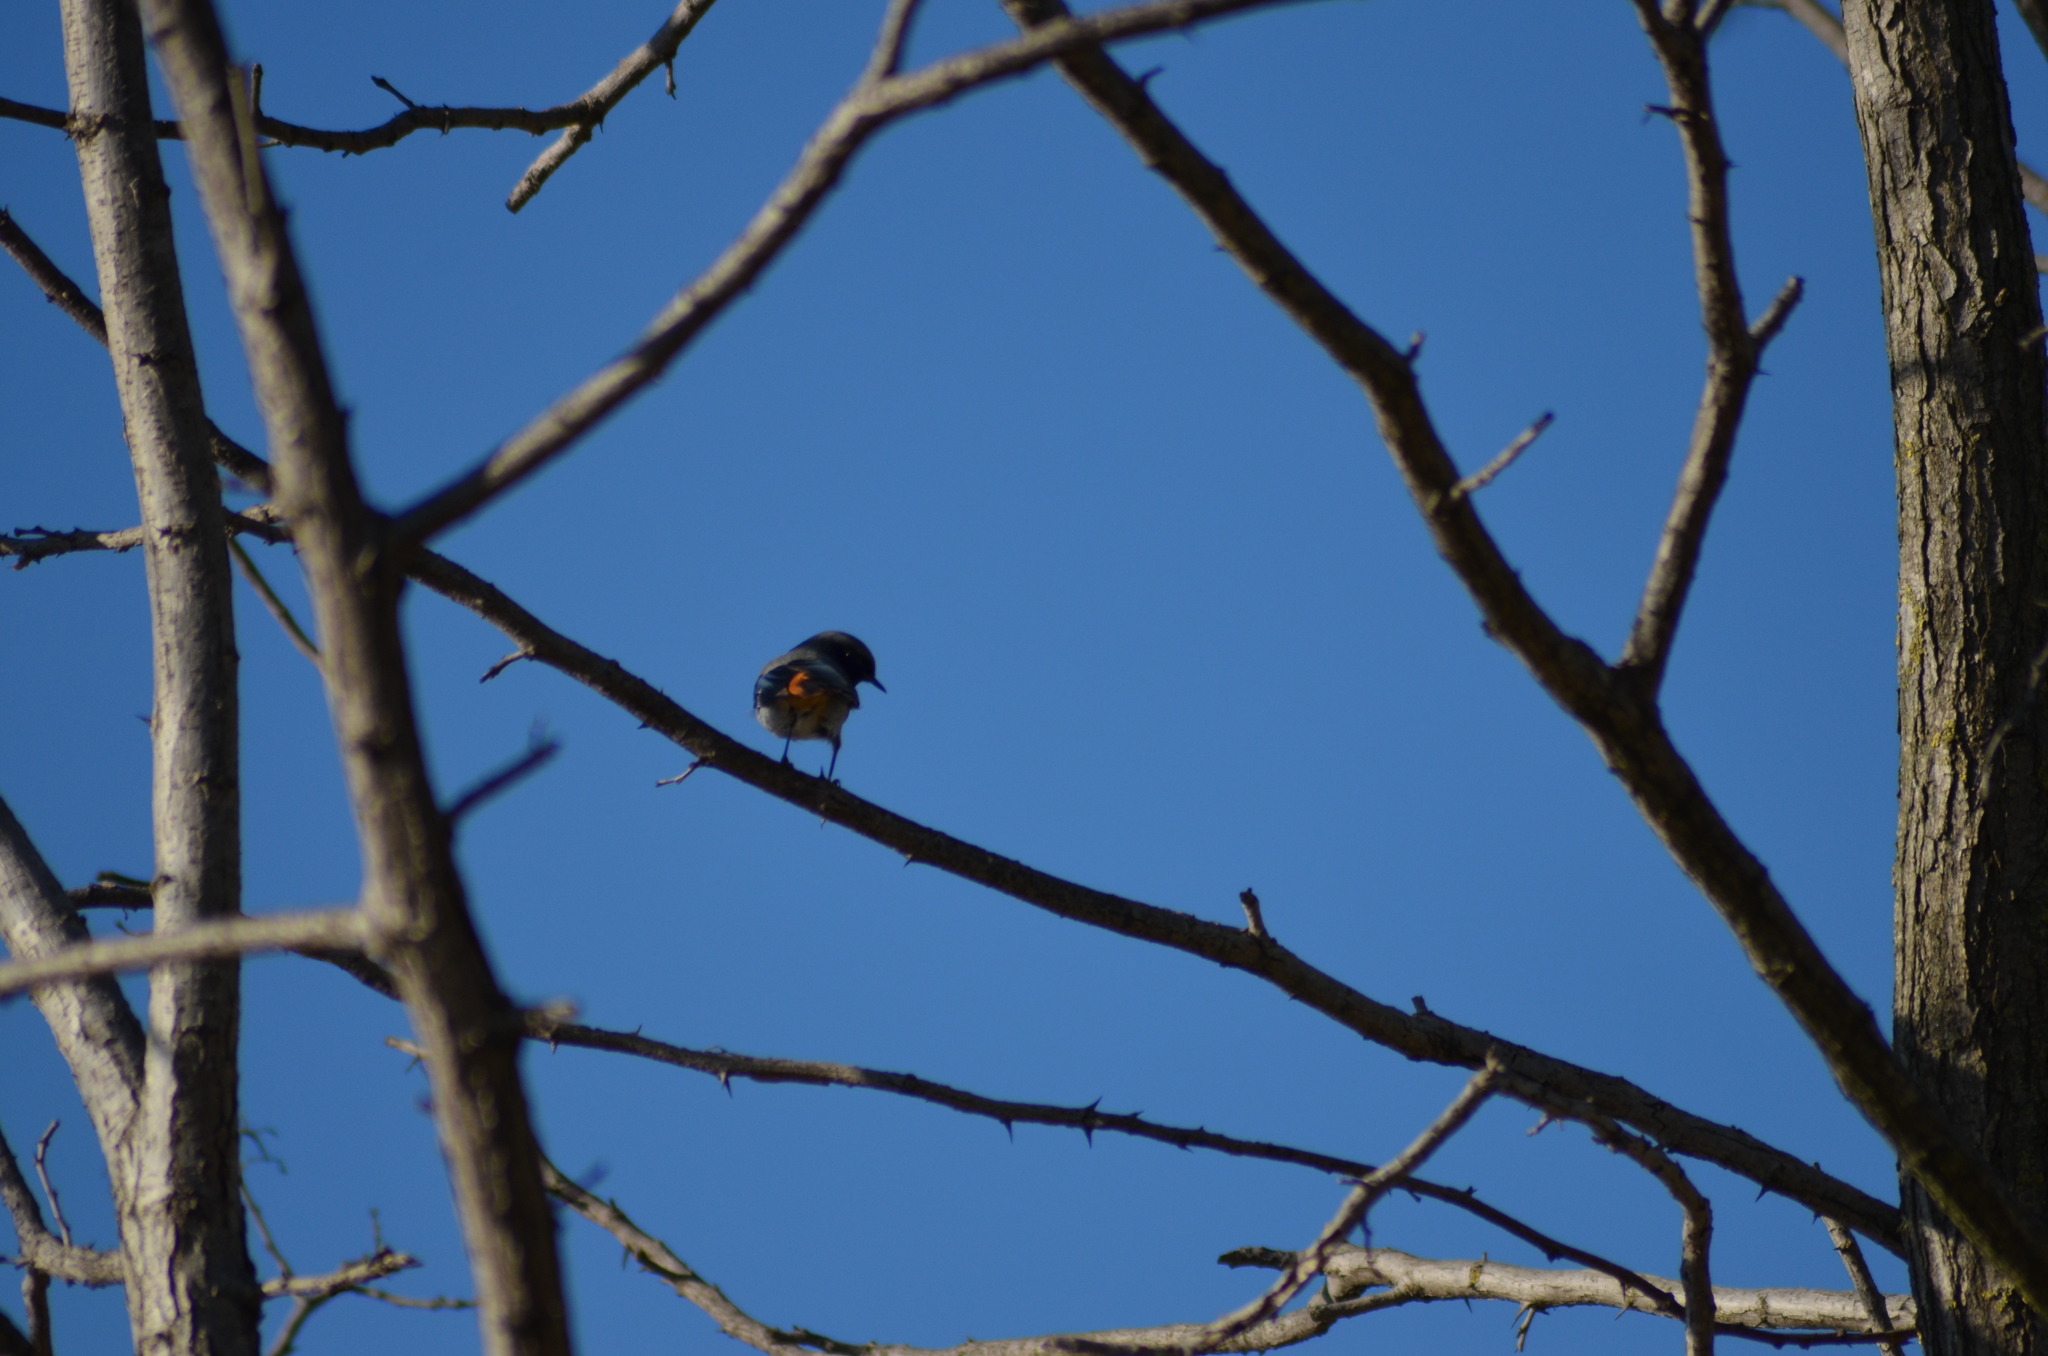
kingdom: Animalia
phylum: Chordata
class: Aves
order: Passeriformes
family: Muscicapidae
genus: Phoenicurus
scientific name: Phoenicurus ochruros
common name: Black redstart
